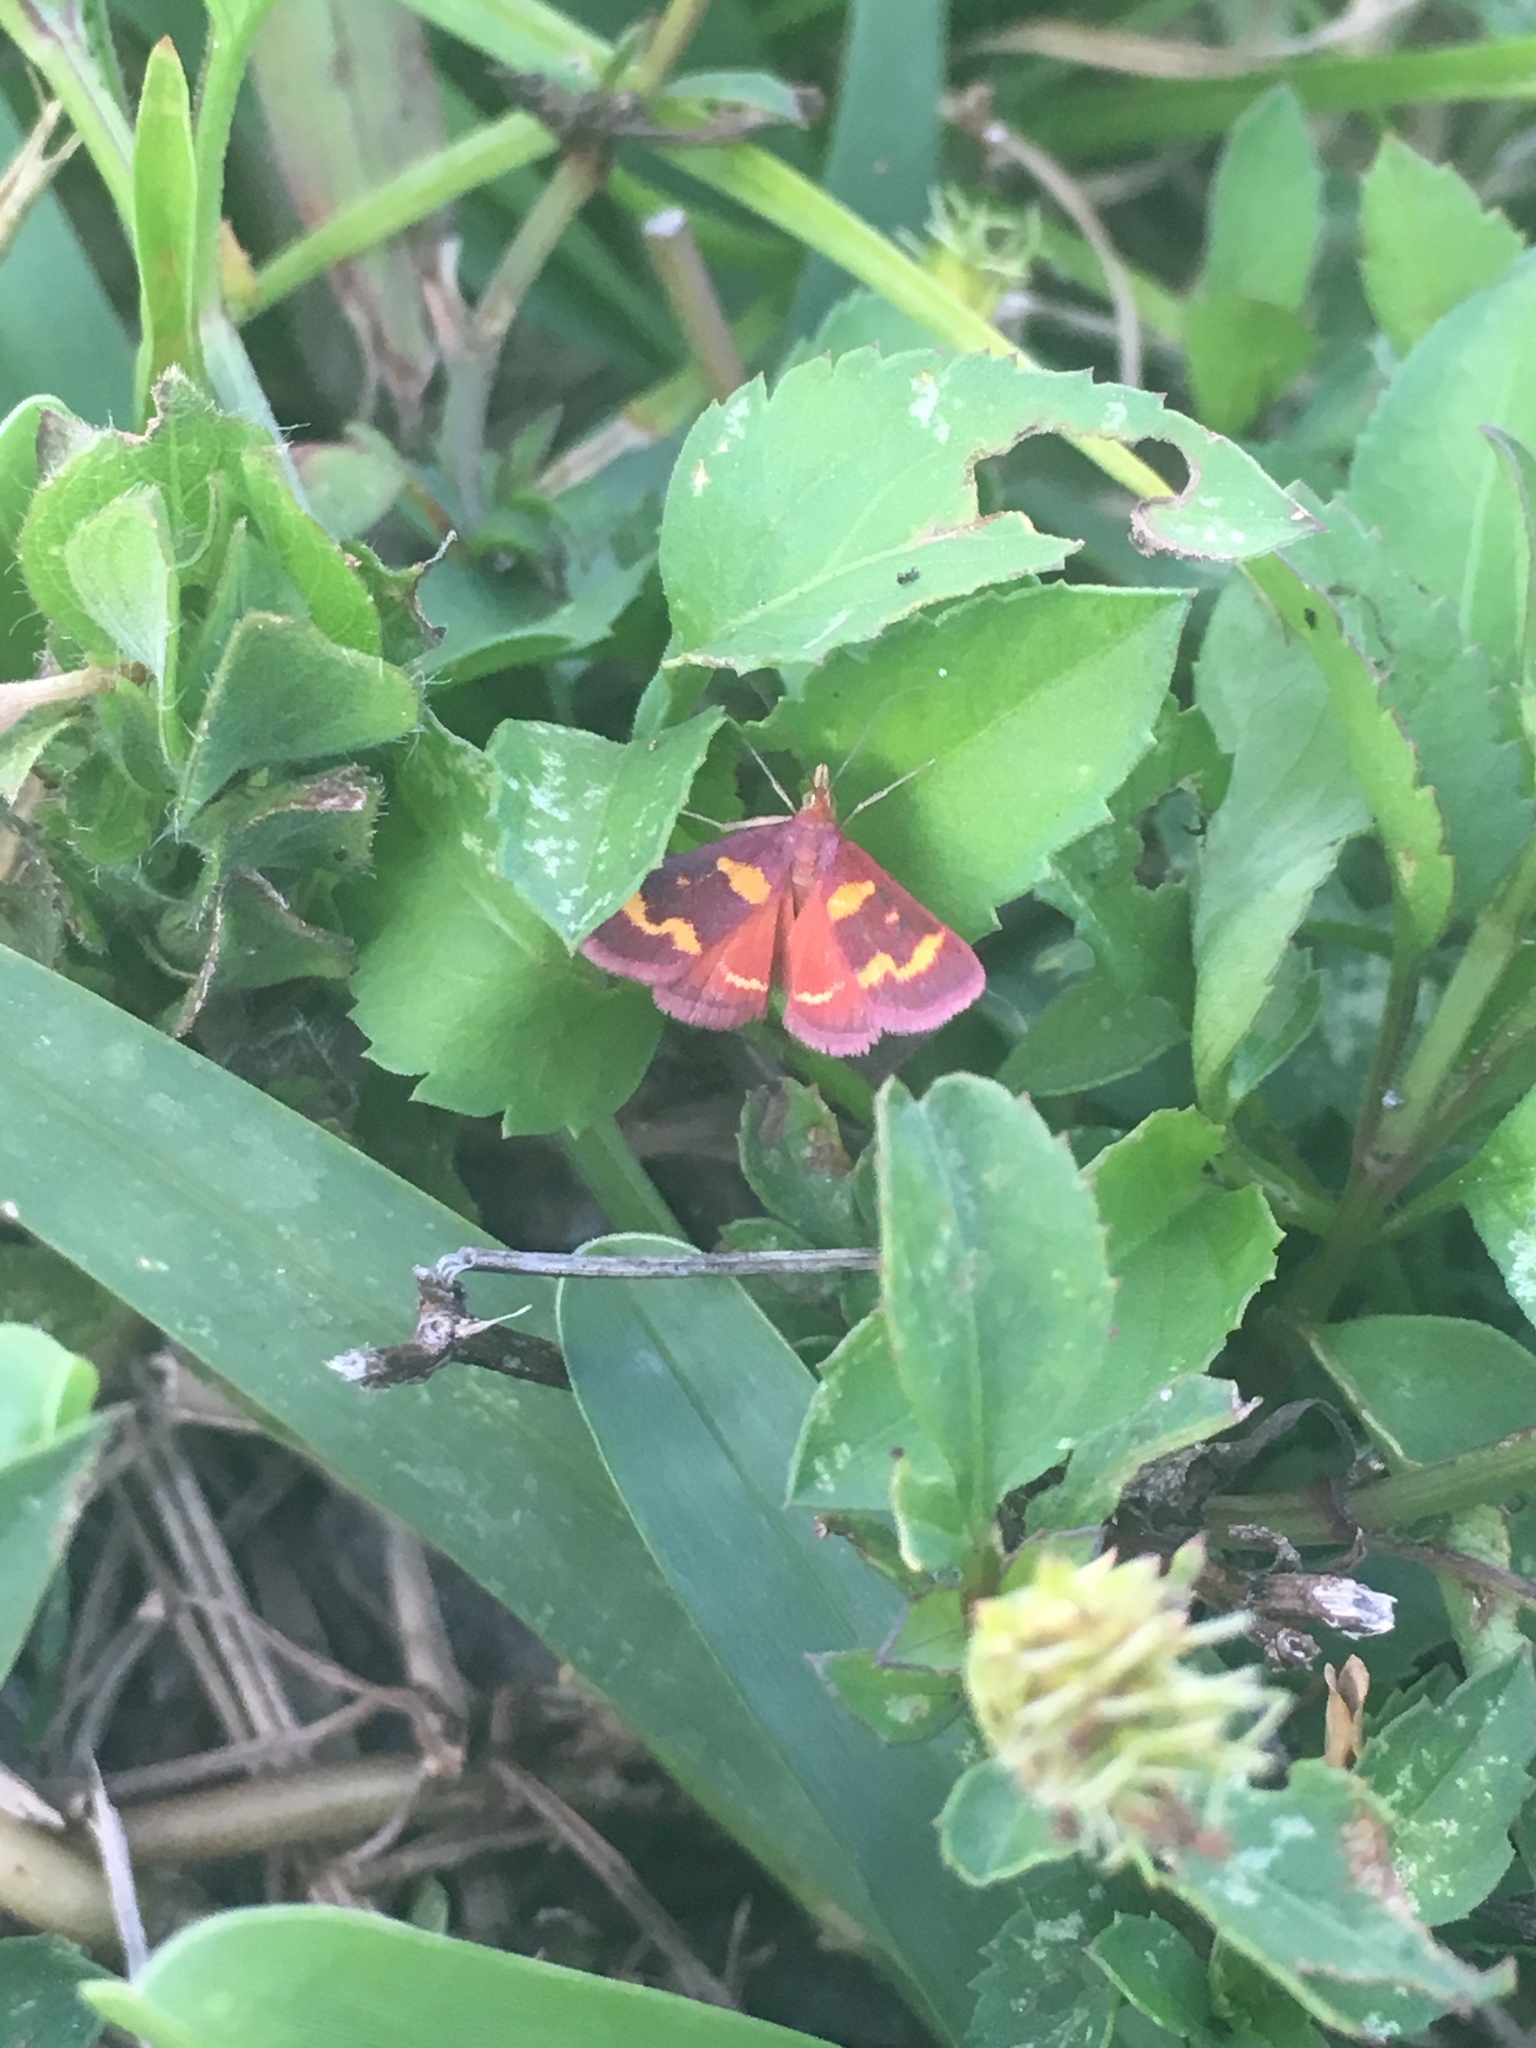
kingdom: Animalia
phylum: Arthropoda
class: Insecta
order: Lepidoptera
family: Crambidae
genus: Pyrausta
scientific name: Pyrausta tyralis
